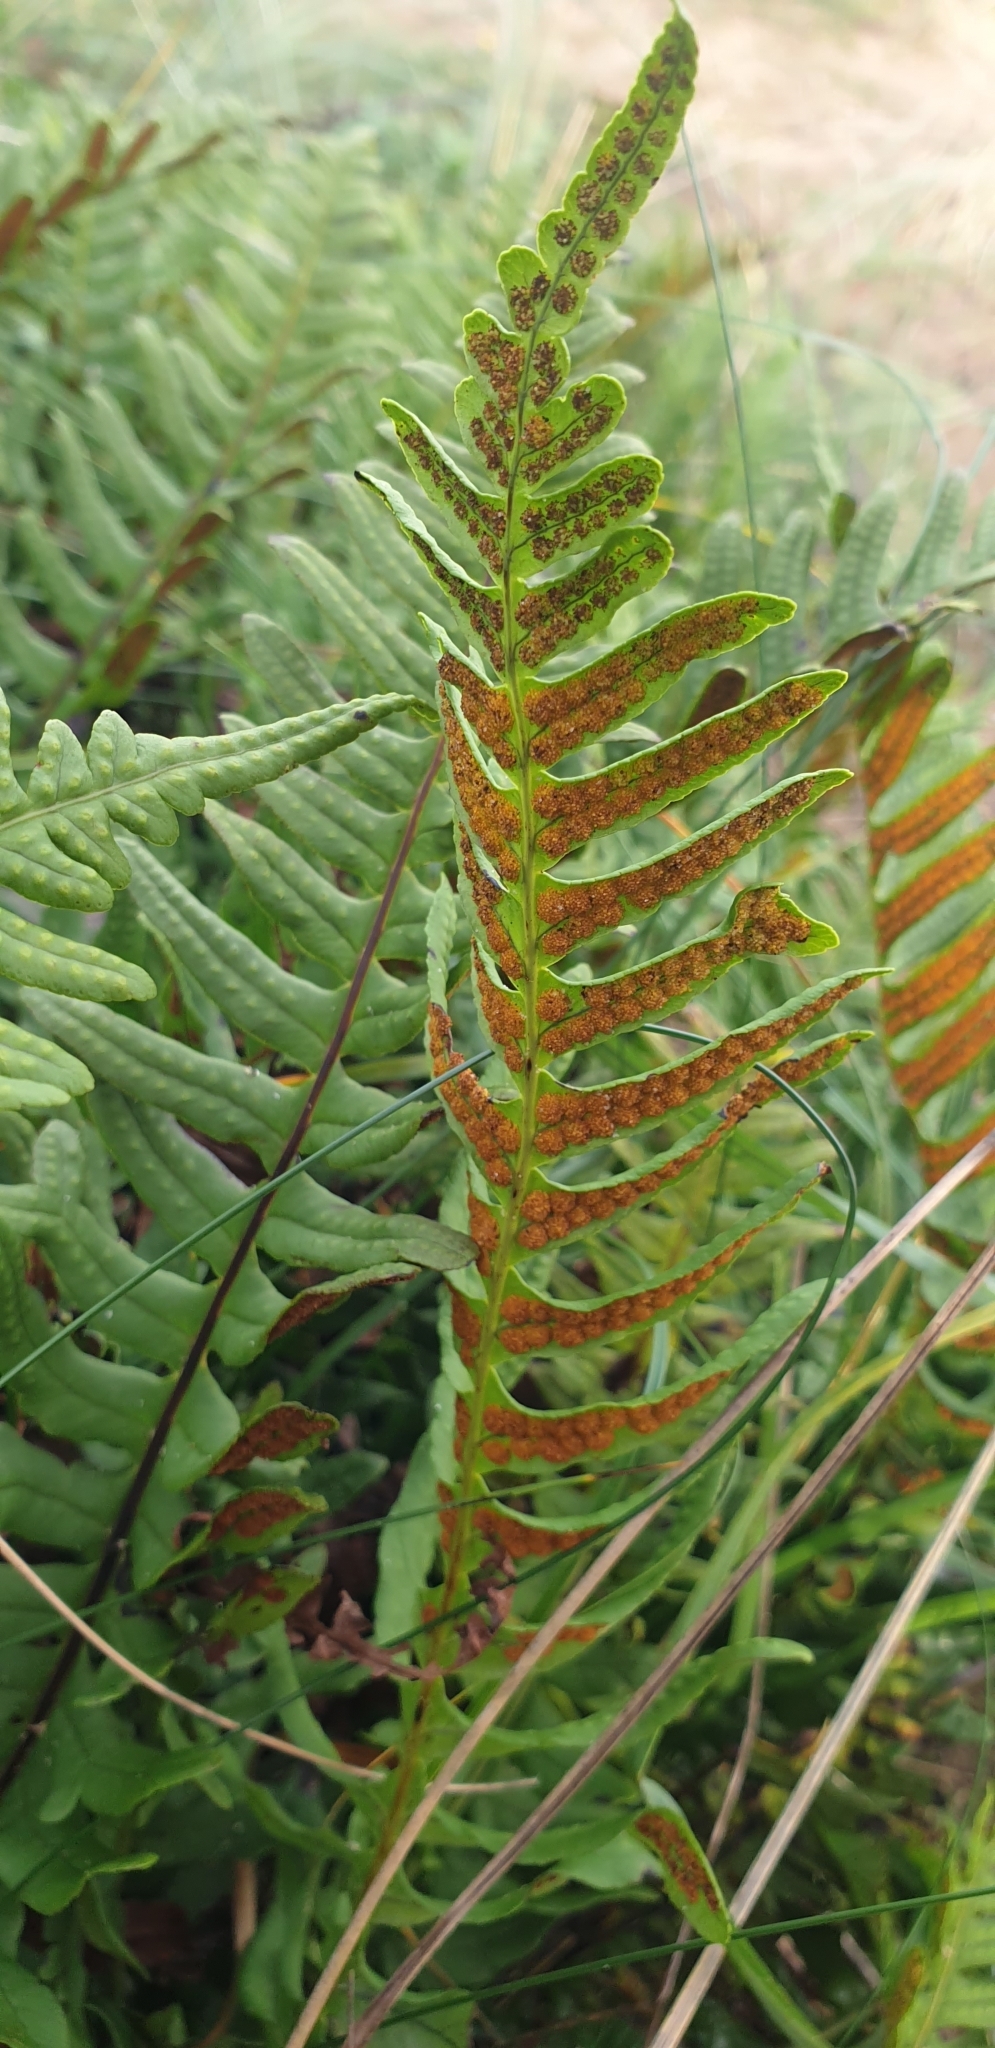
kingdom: Plantae
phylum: Tracheophyta
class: Polypodiopsida
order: Polypodiales
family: Polypodiaceae
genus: Polypodium
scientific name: Polypodium vulgare
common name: Common polypody
